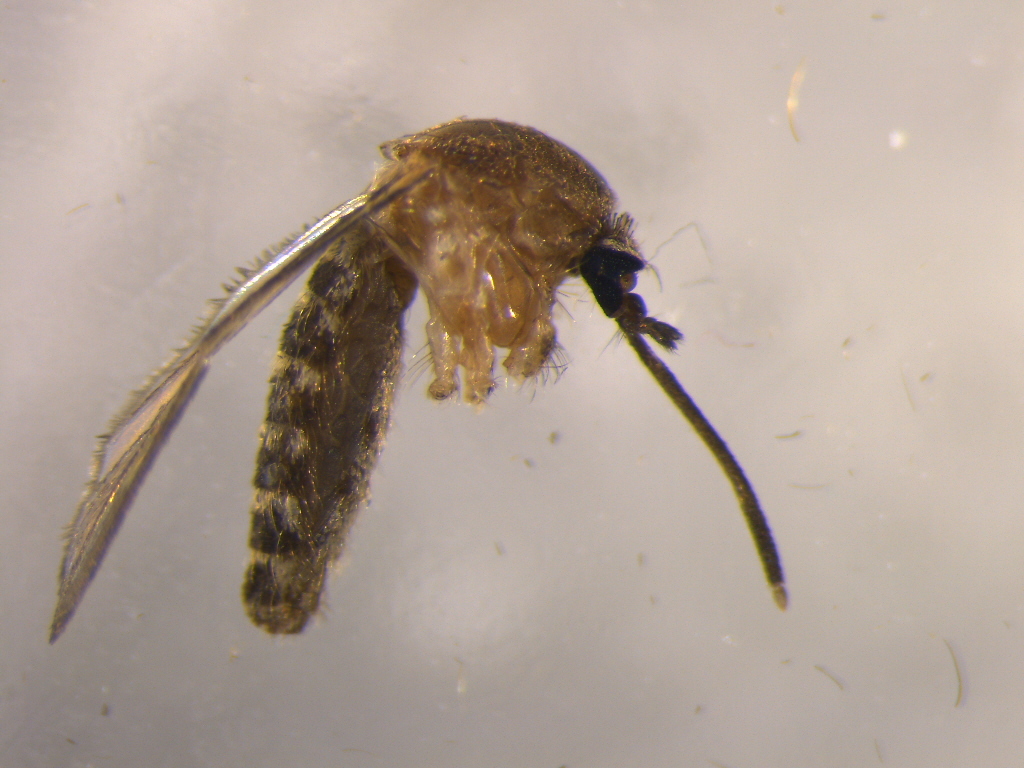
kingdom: Animalia
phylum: Arthropoda
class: Insecta
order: Diptera
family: Culicidae
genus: Culex
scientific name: Culex quinquefasciatus
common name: Southern house mosquito
